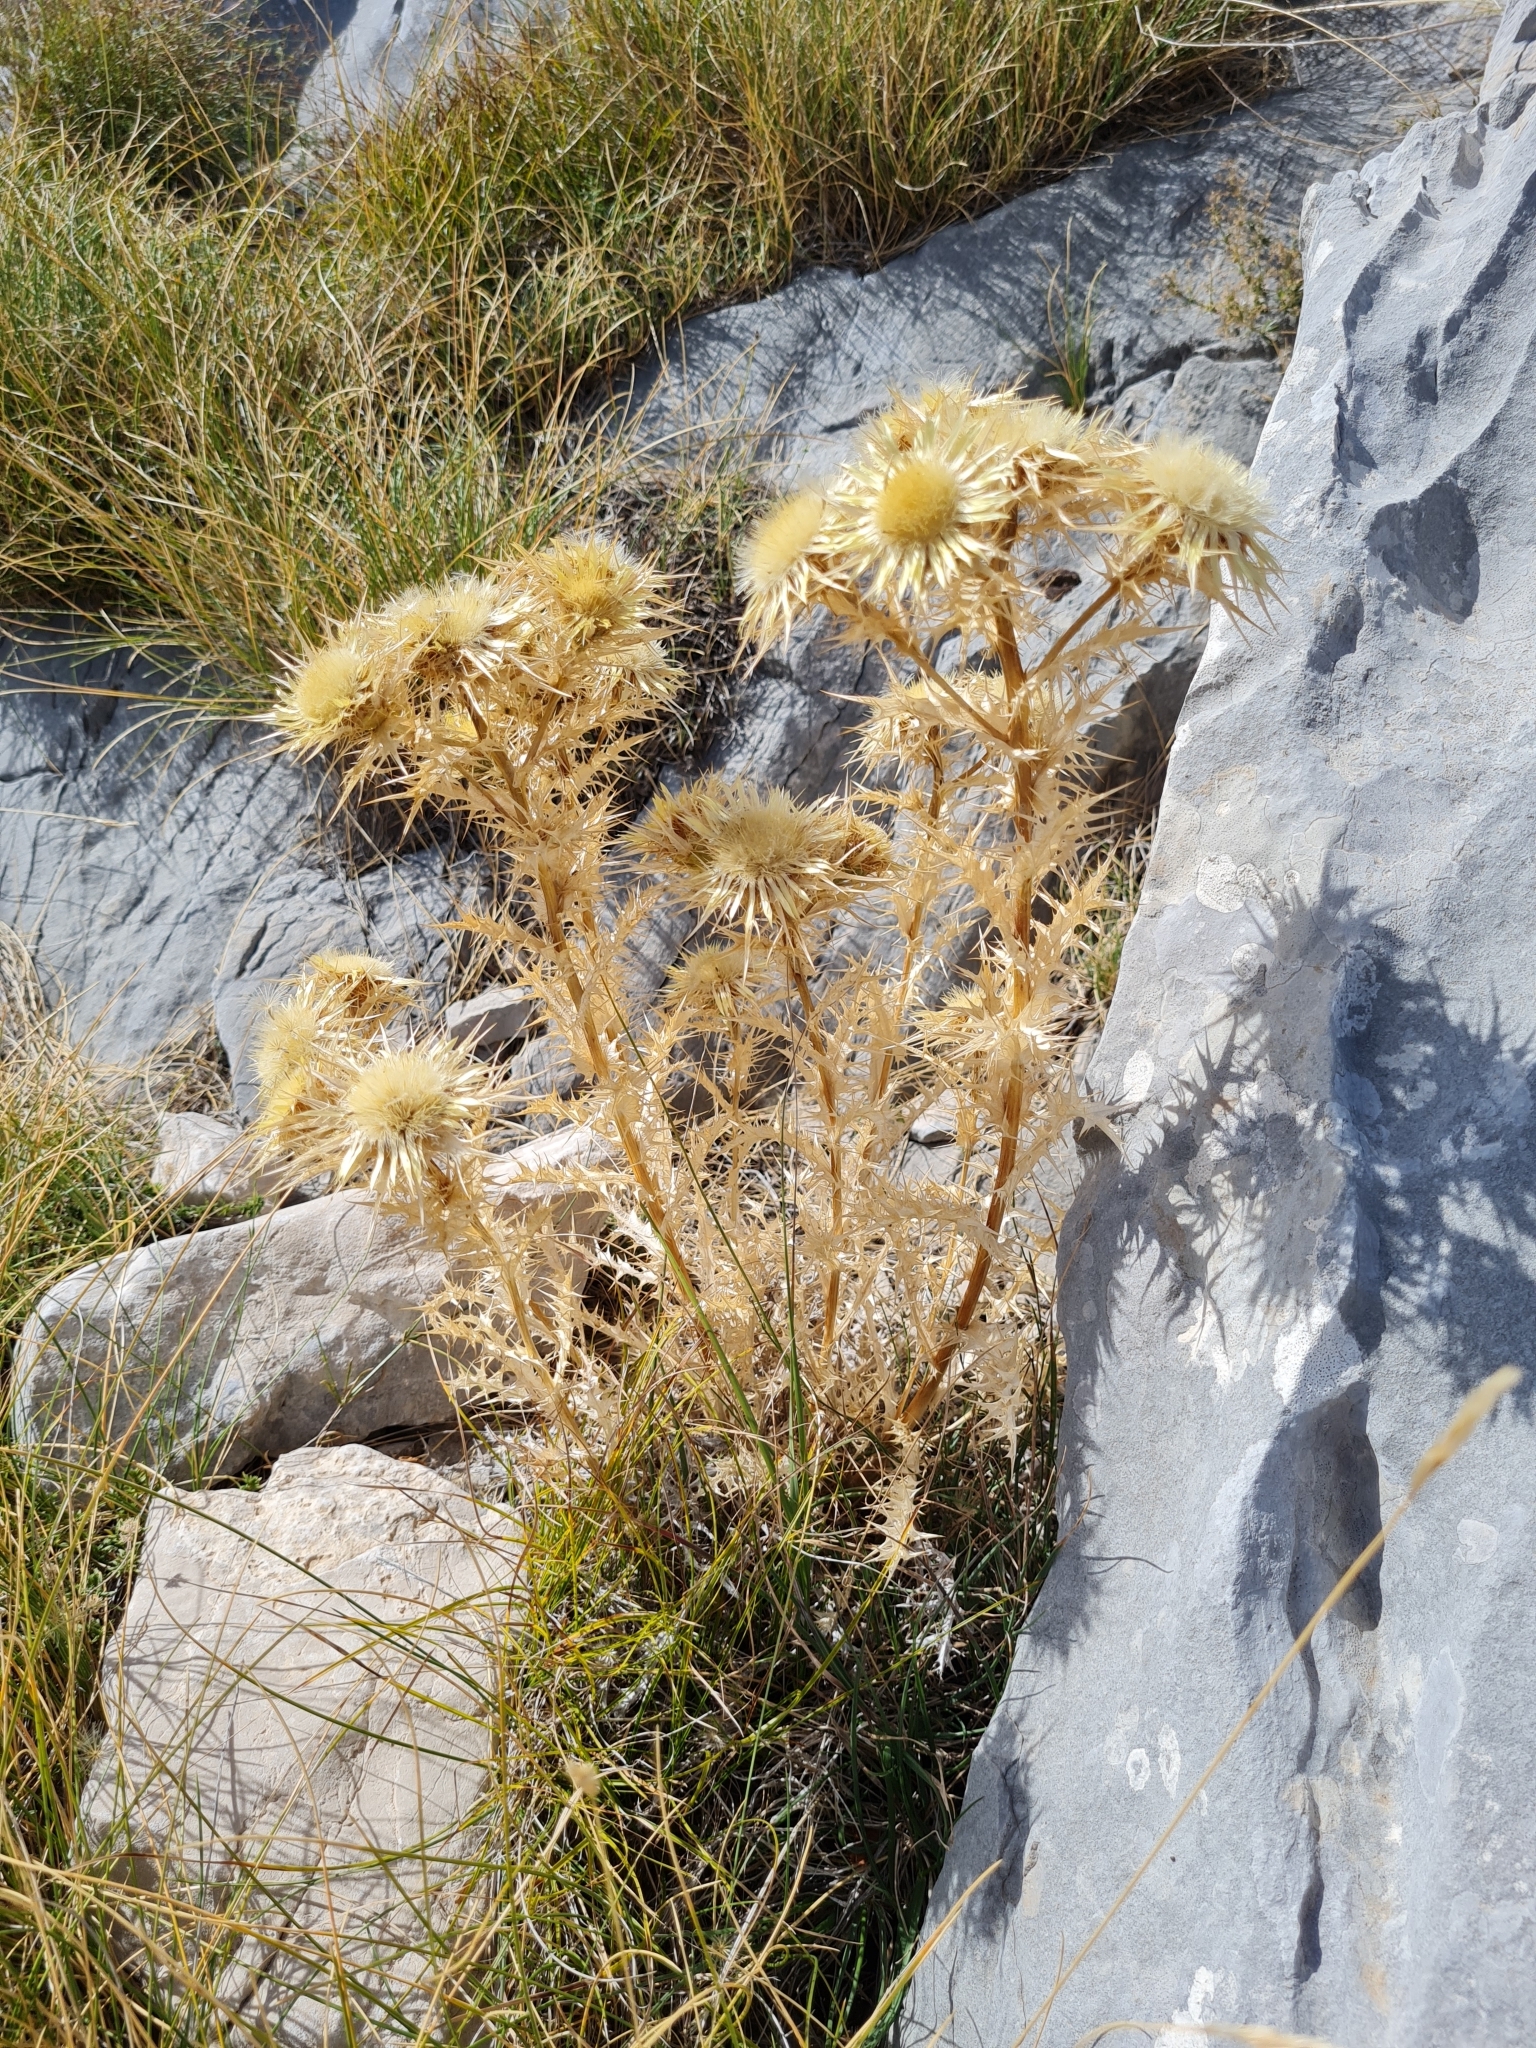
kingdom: Plantae
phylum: Tracheophyta
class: Magnoliopsida
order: Asterales
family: Asteraceae
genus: Carlina
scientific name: Carlina corymbosa
